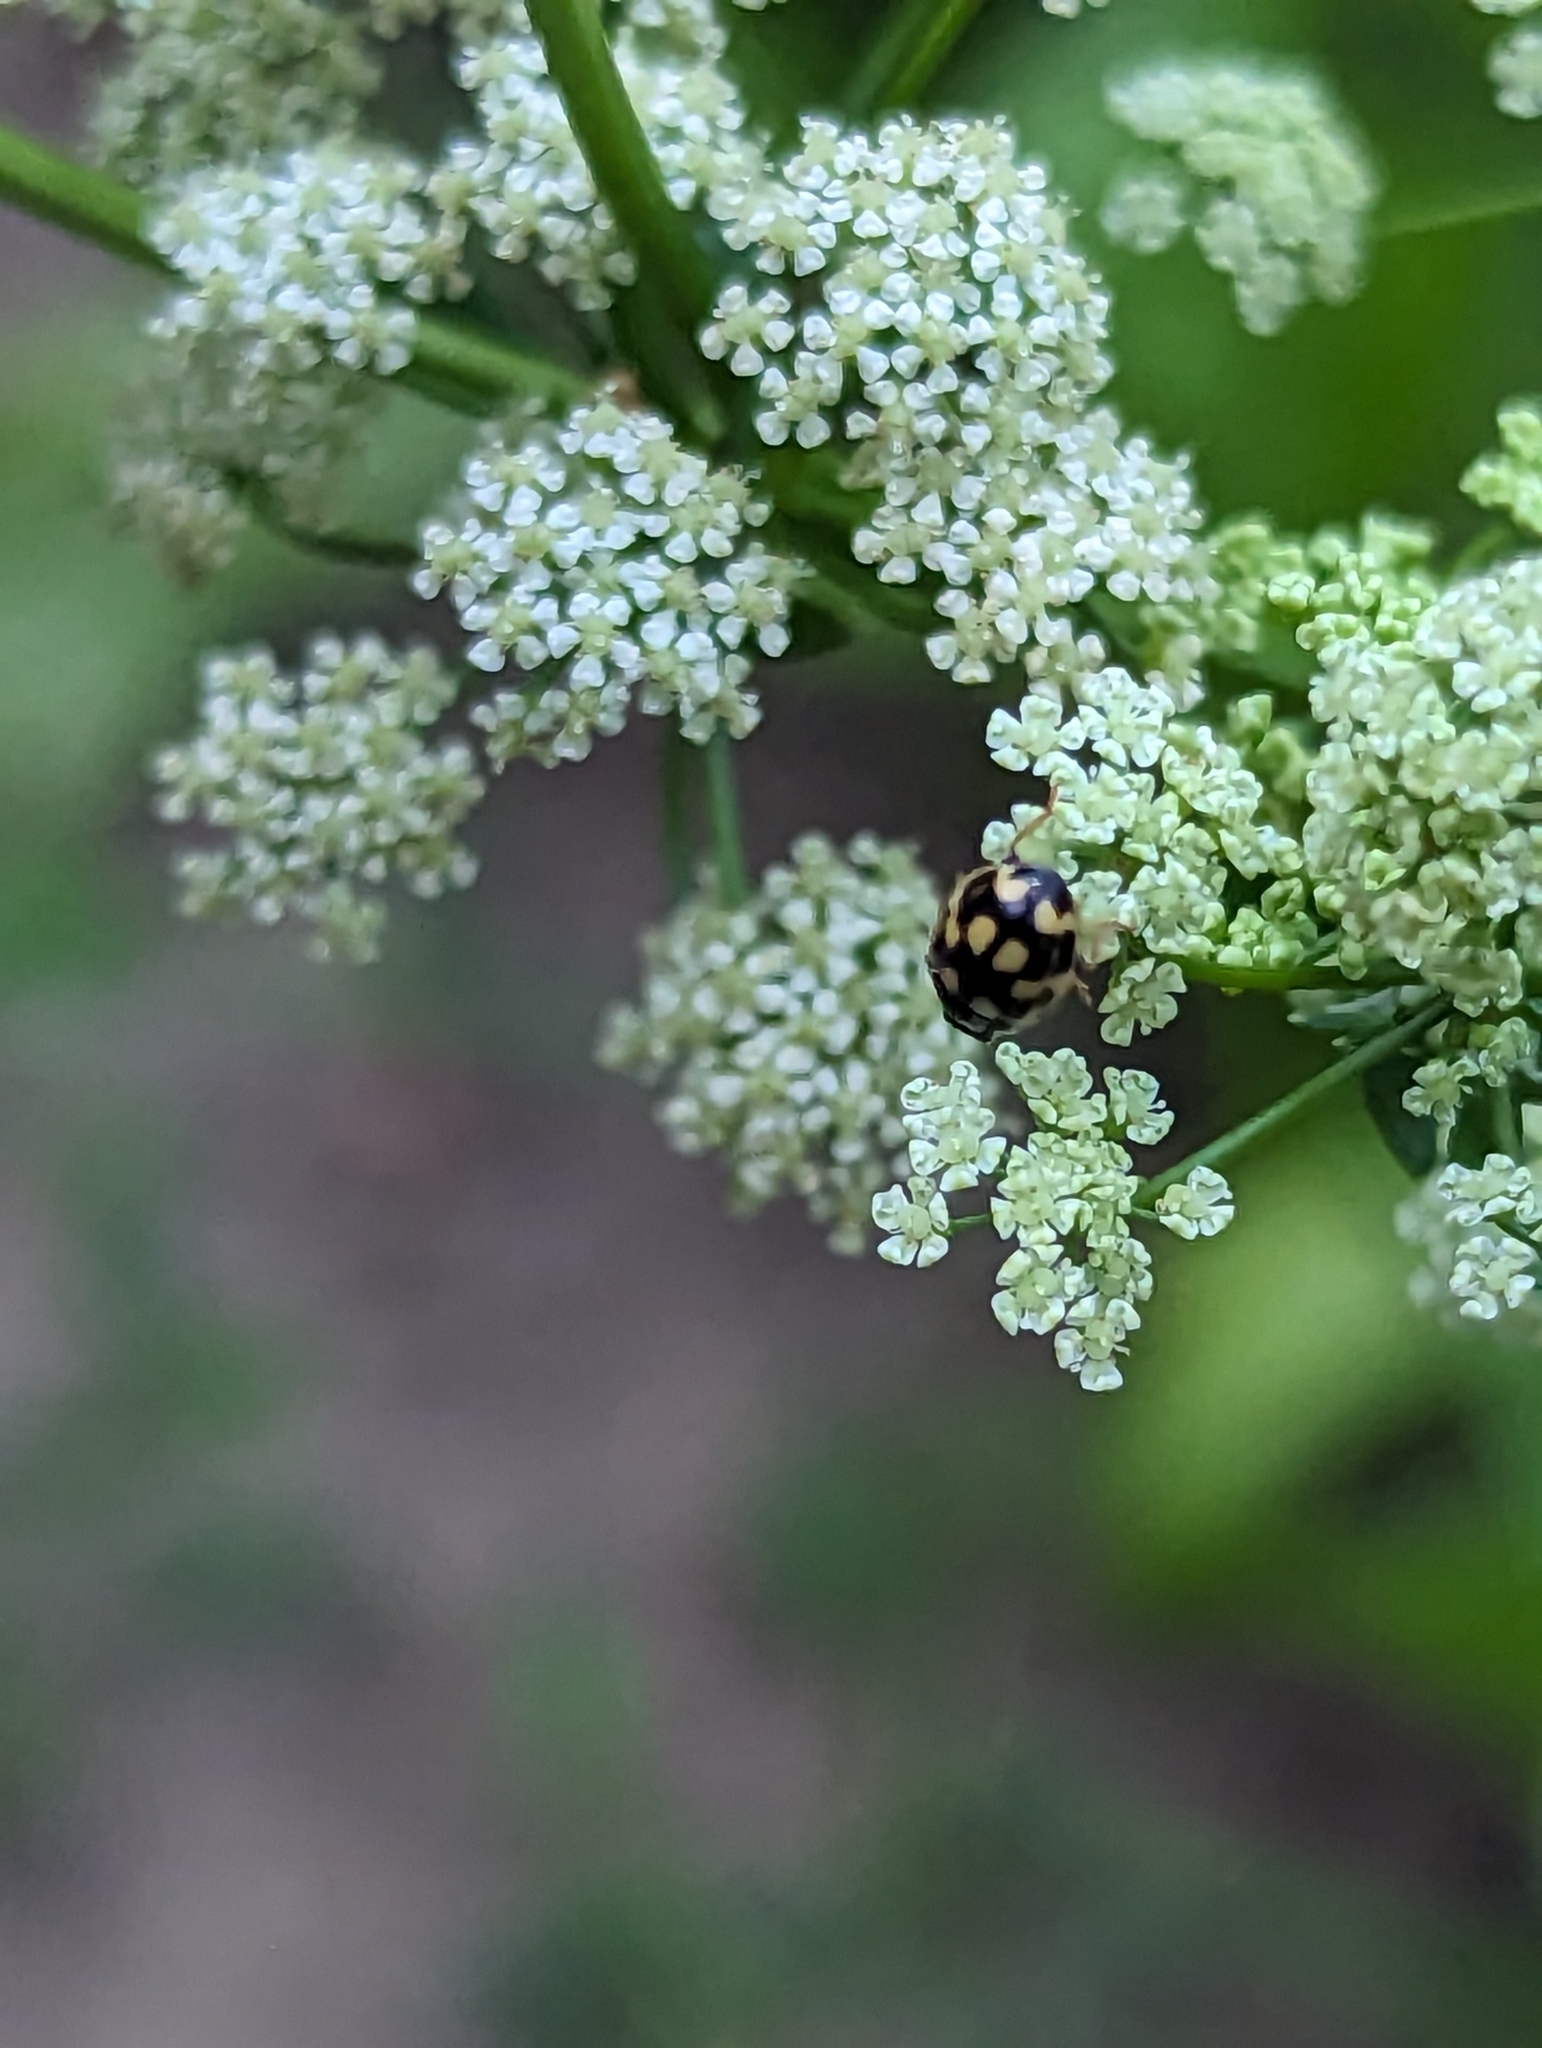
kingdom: Animalia
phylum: Arthropoda
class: Insecta
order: Coleoptera
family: Coccinellidae
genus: Propylaea
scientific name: Propylaea quatuordecimpunctata
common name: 14-spotted ladybird beetle
